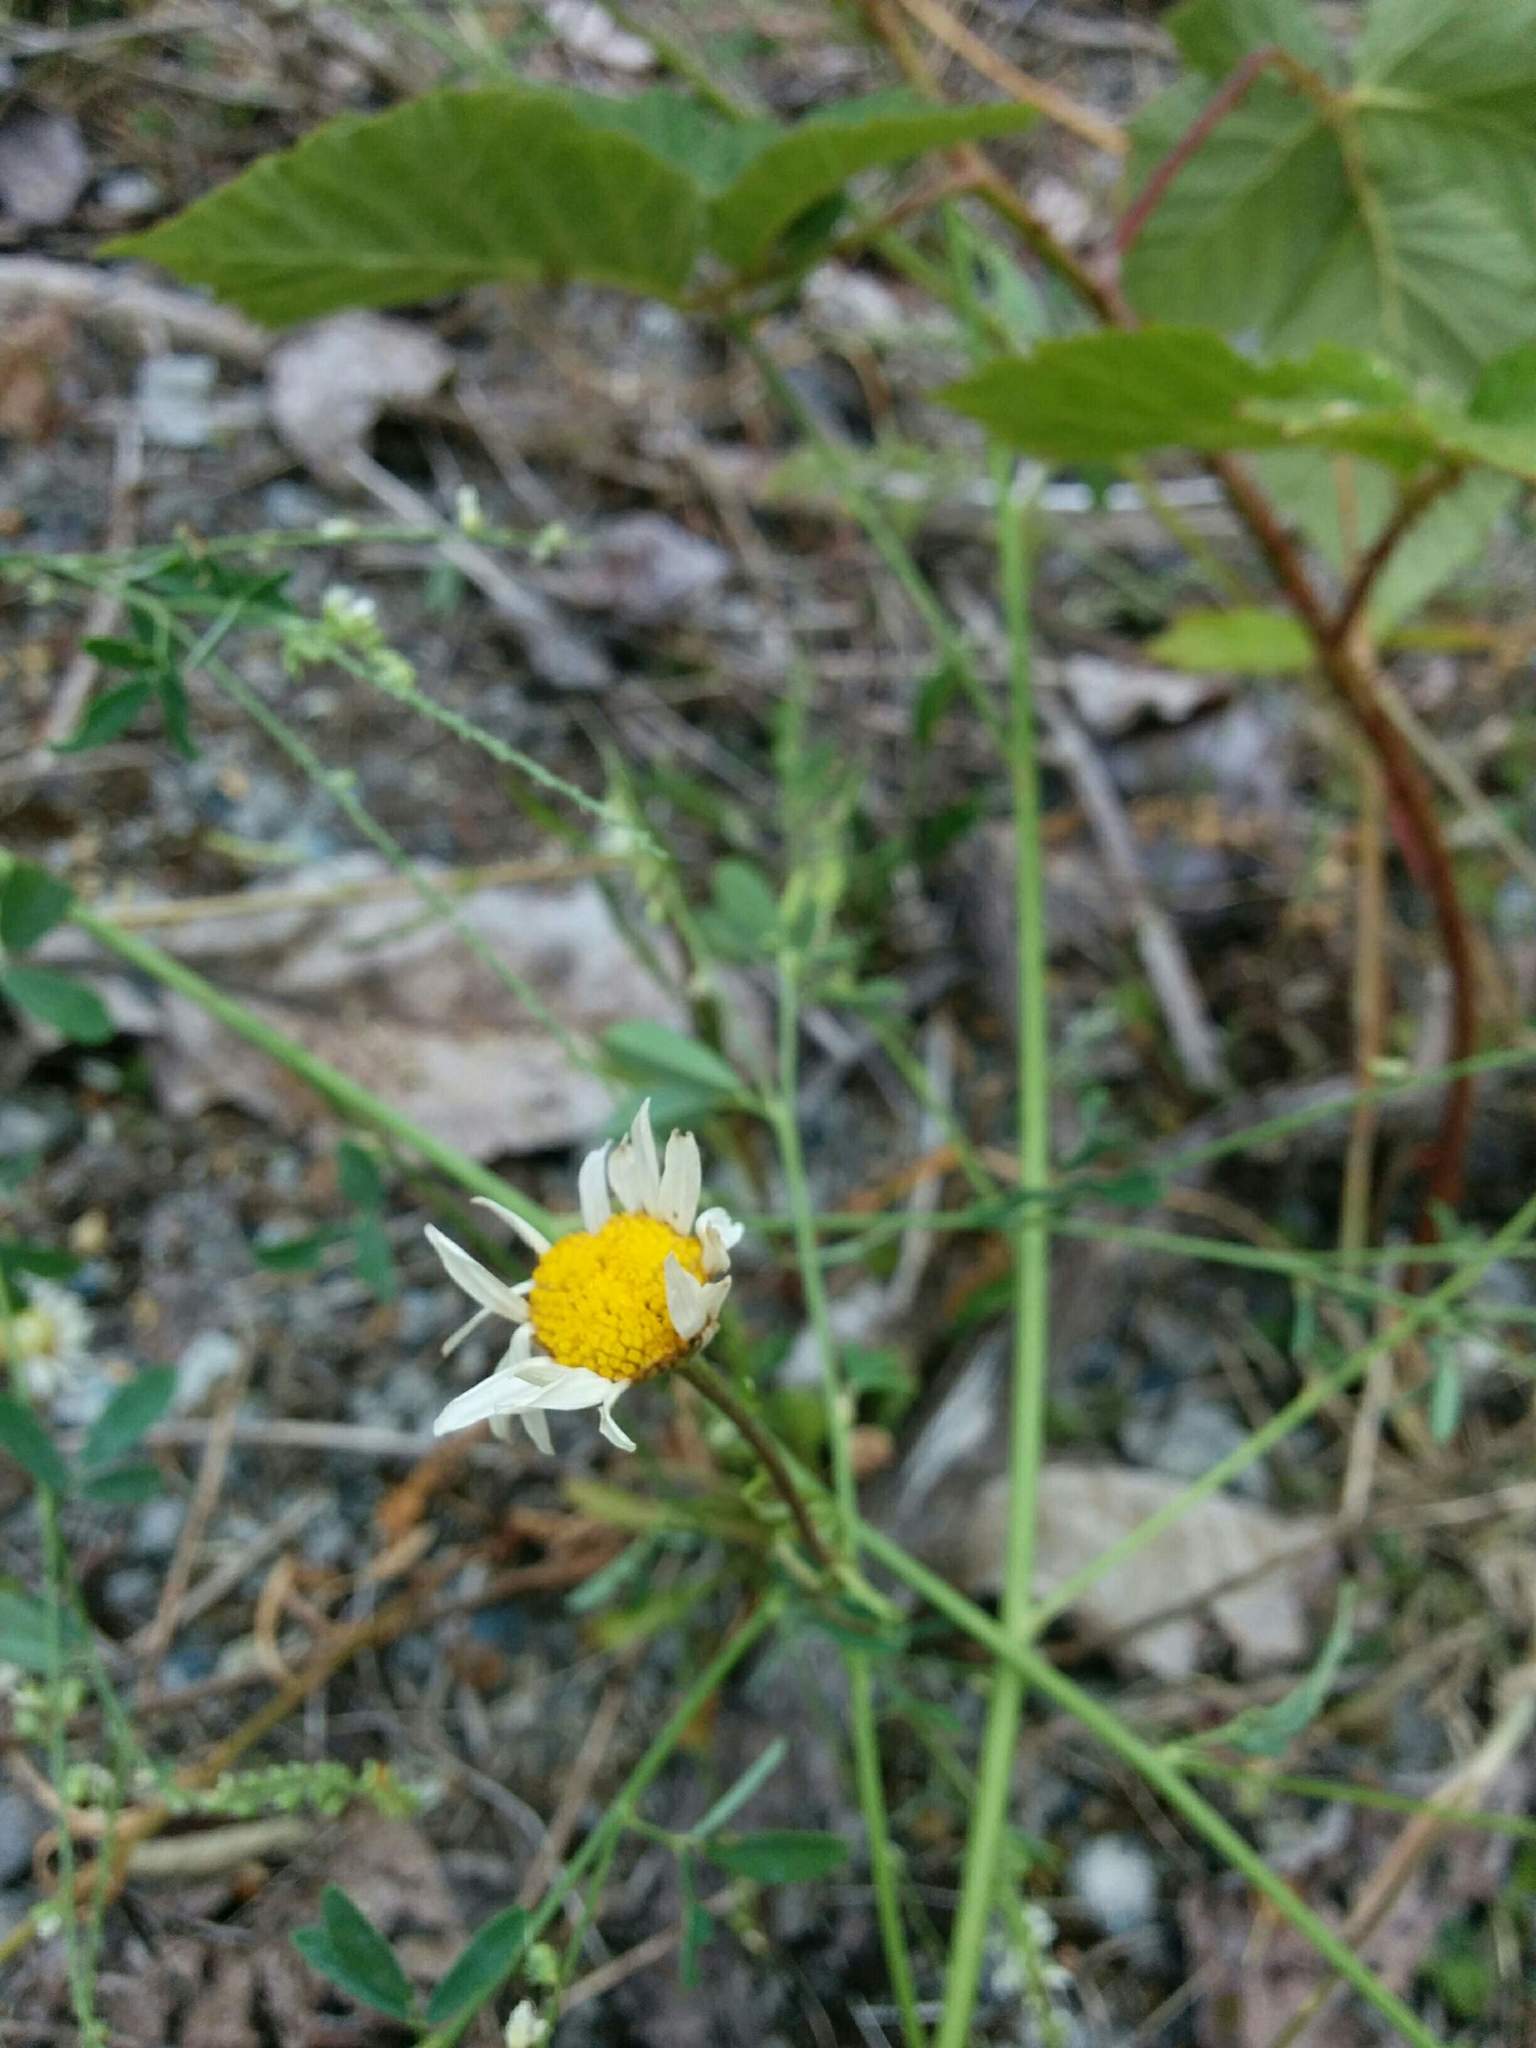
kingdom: Plantae
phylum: Tracheophyta
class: Magnoliopsida
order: Asterales
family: Asteraceae
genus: Leucanthemum
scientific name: Leucanthemum vulgare
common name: Oxeye daisy
